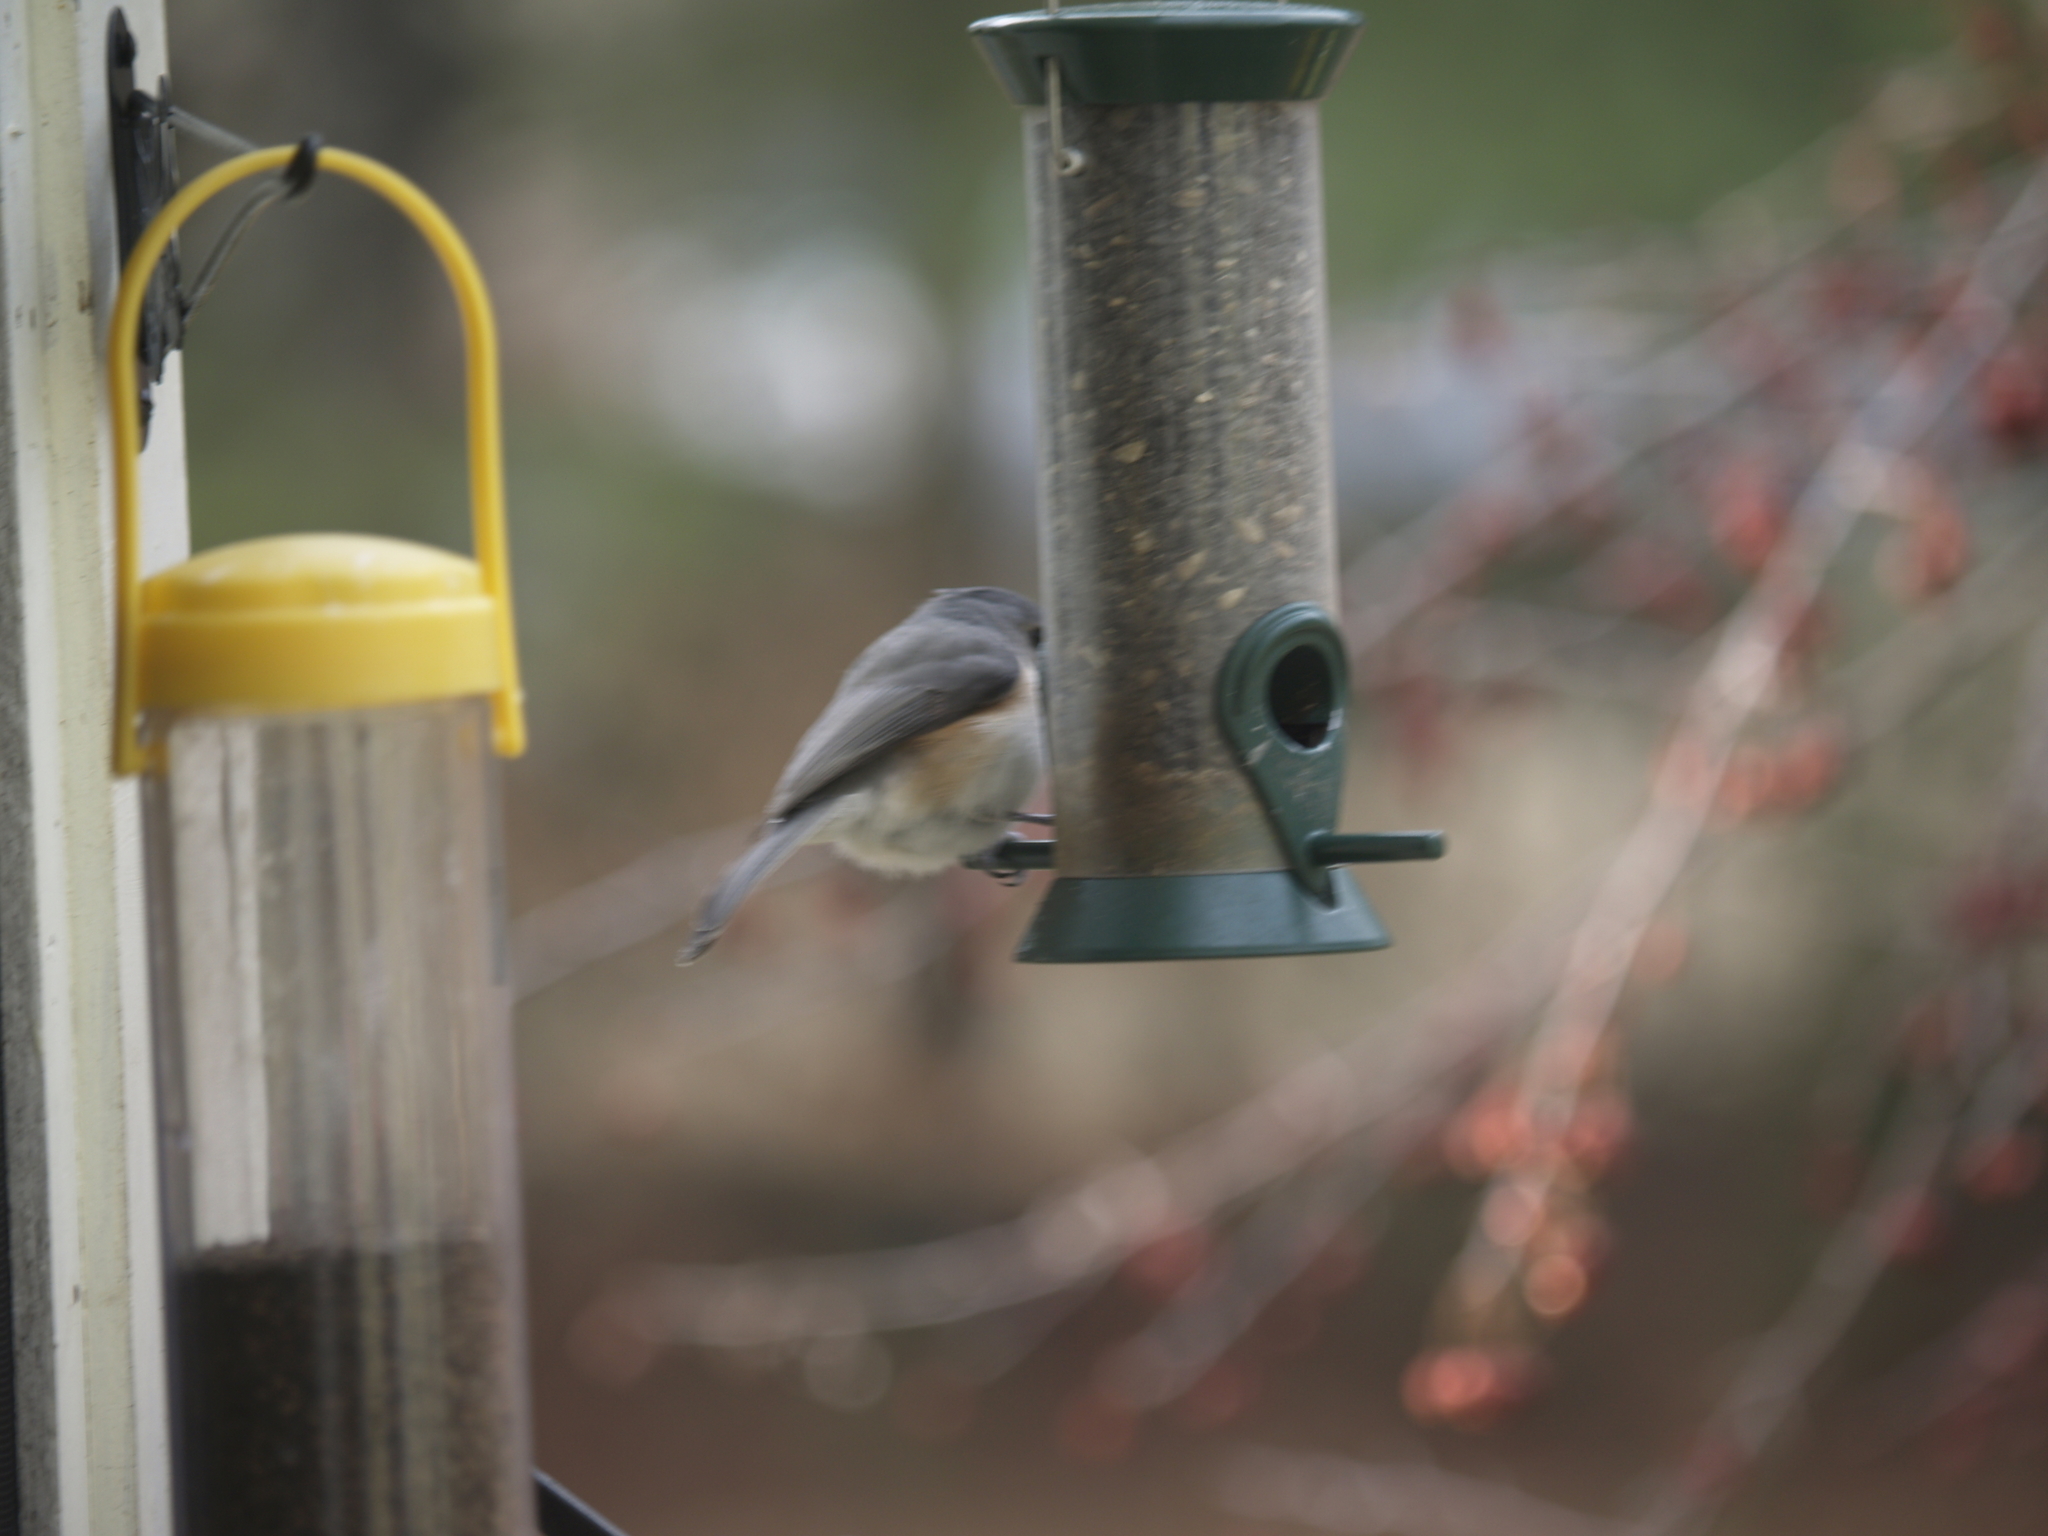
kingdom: Animalia
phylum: Chordata
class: Aves
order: Passeriformes
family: Paridae
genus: Baeolophus
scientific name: Baeolophus bicolor
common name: Tufted titmouse
